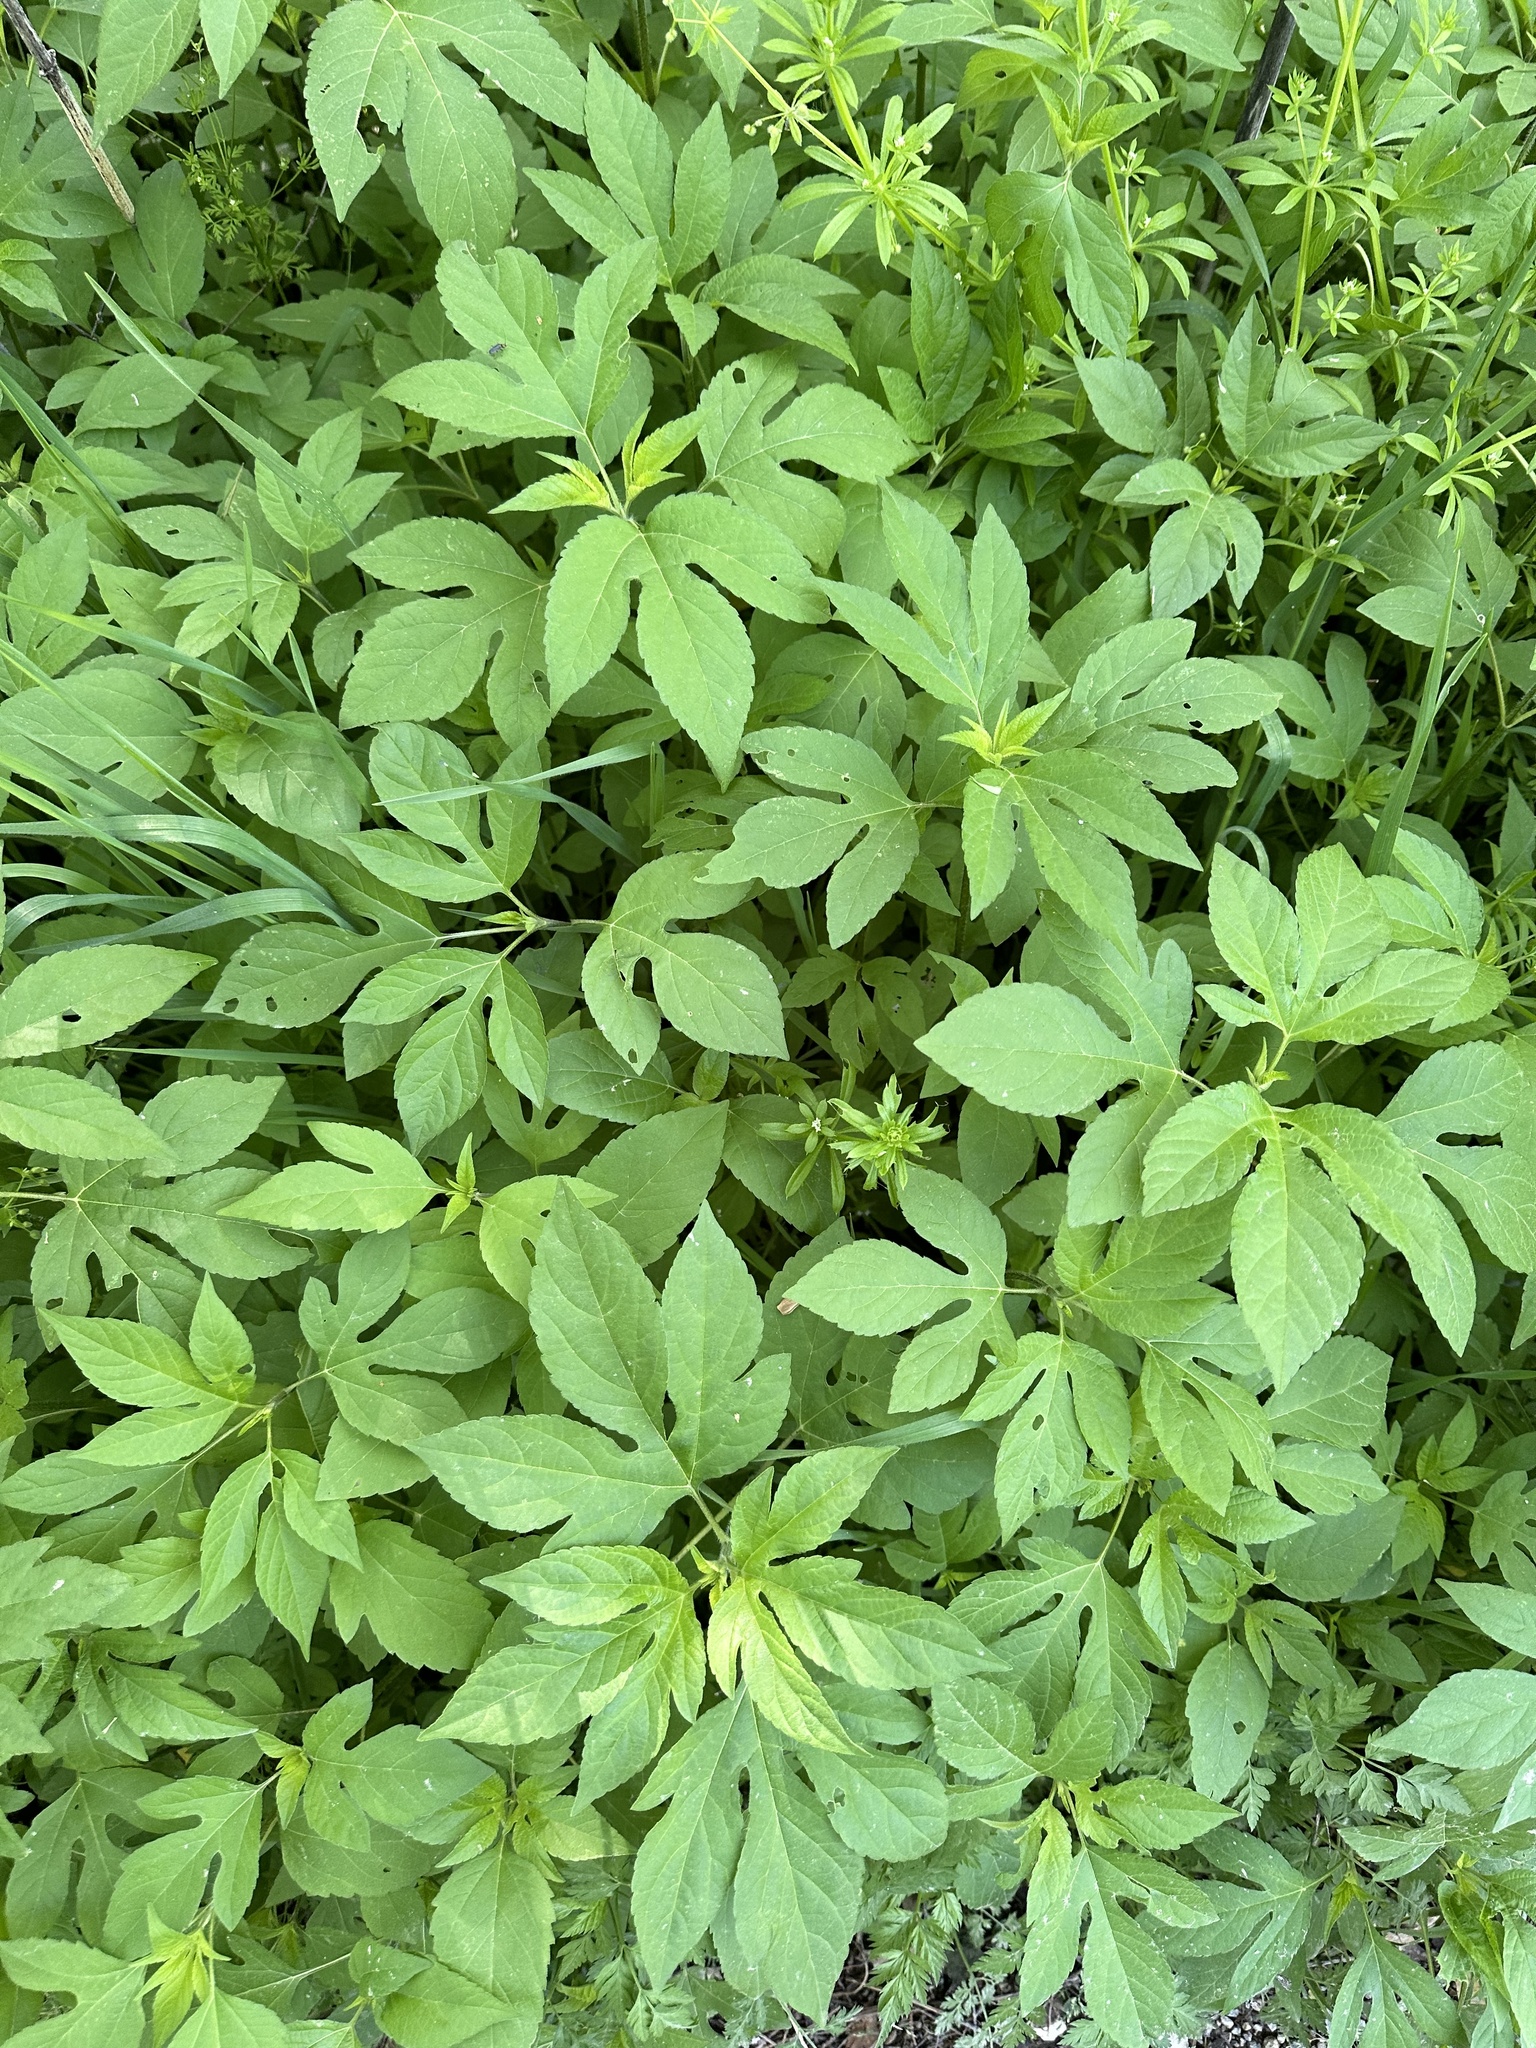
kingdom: Plantae
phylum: Tracheophyta
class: Magnoliopsida
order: Asterales
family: Asteraceae
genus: Ambrosia
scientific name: Ambrosia trifida
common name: Giant ragweed
